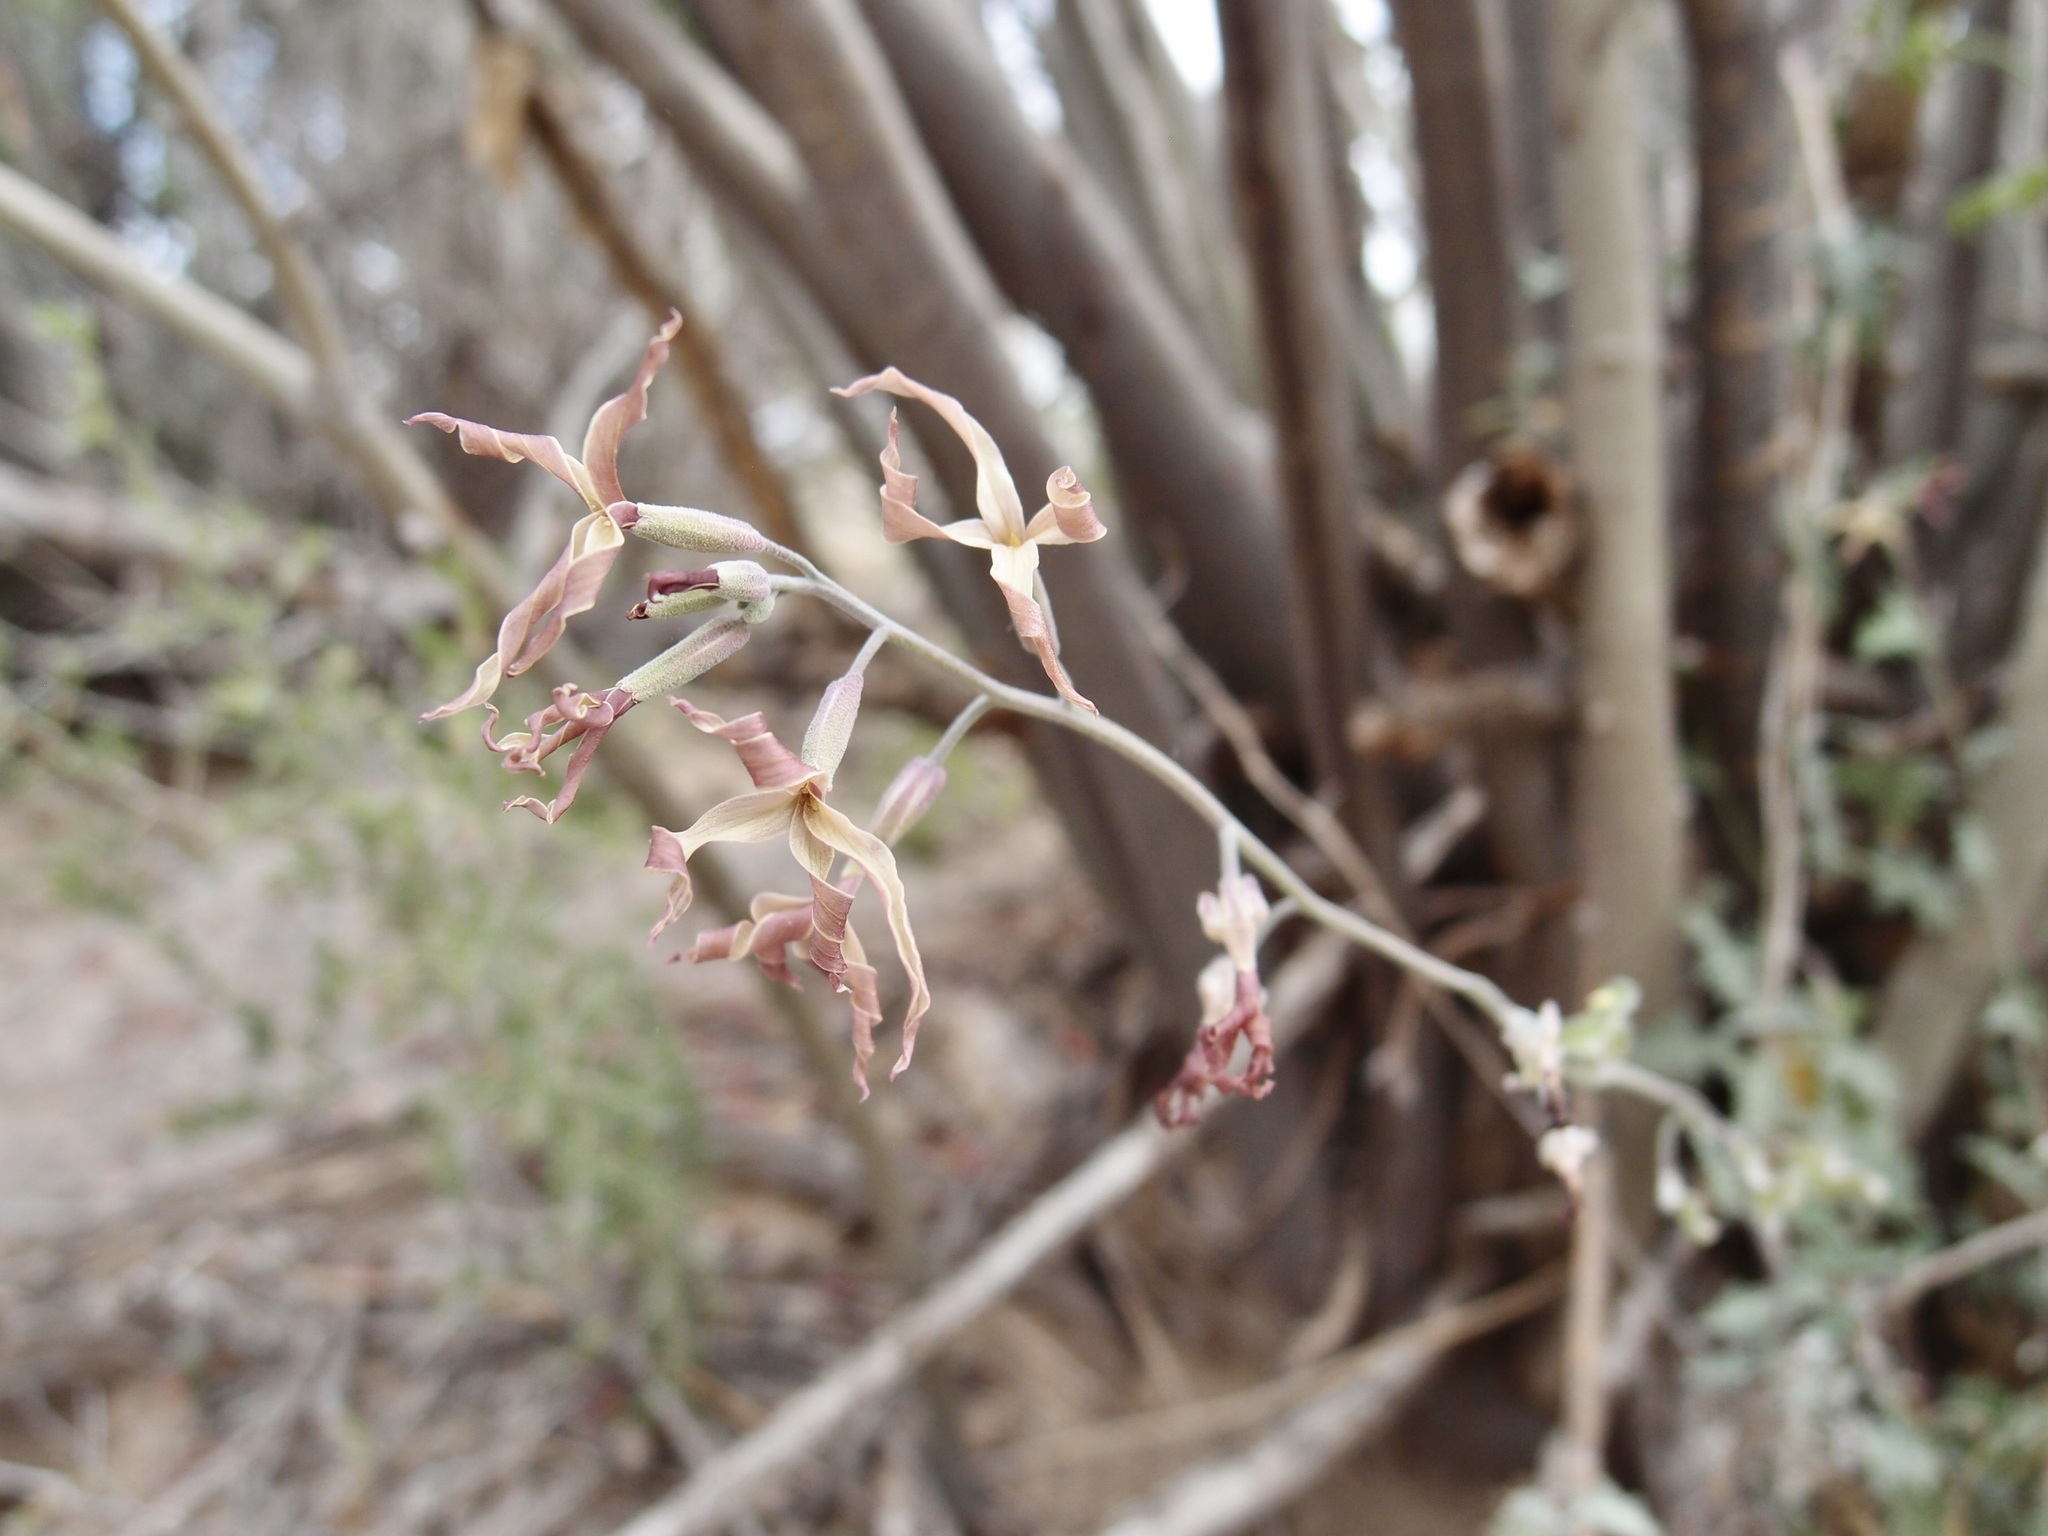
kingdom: Plantae
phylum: Tracheophyta
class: Magnoliopsida
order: Brassicales
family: Brassicaceae
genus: Lyrocarpa
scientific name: Lyrocarpa coulteri
